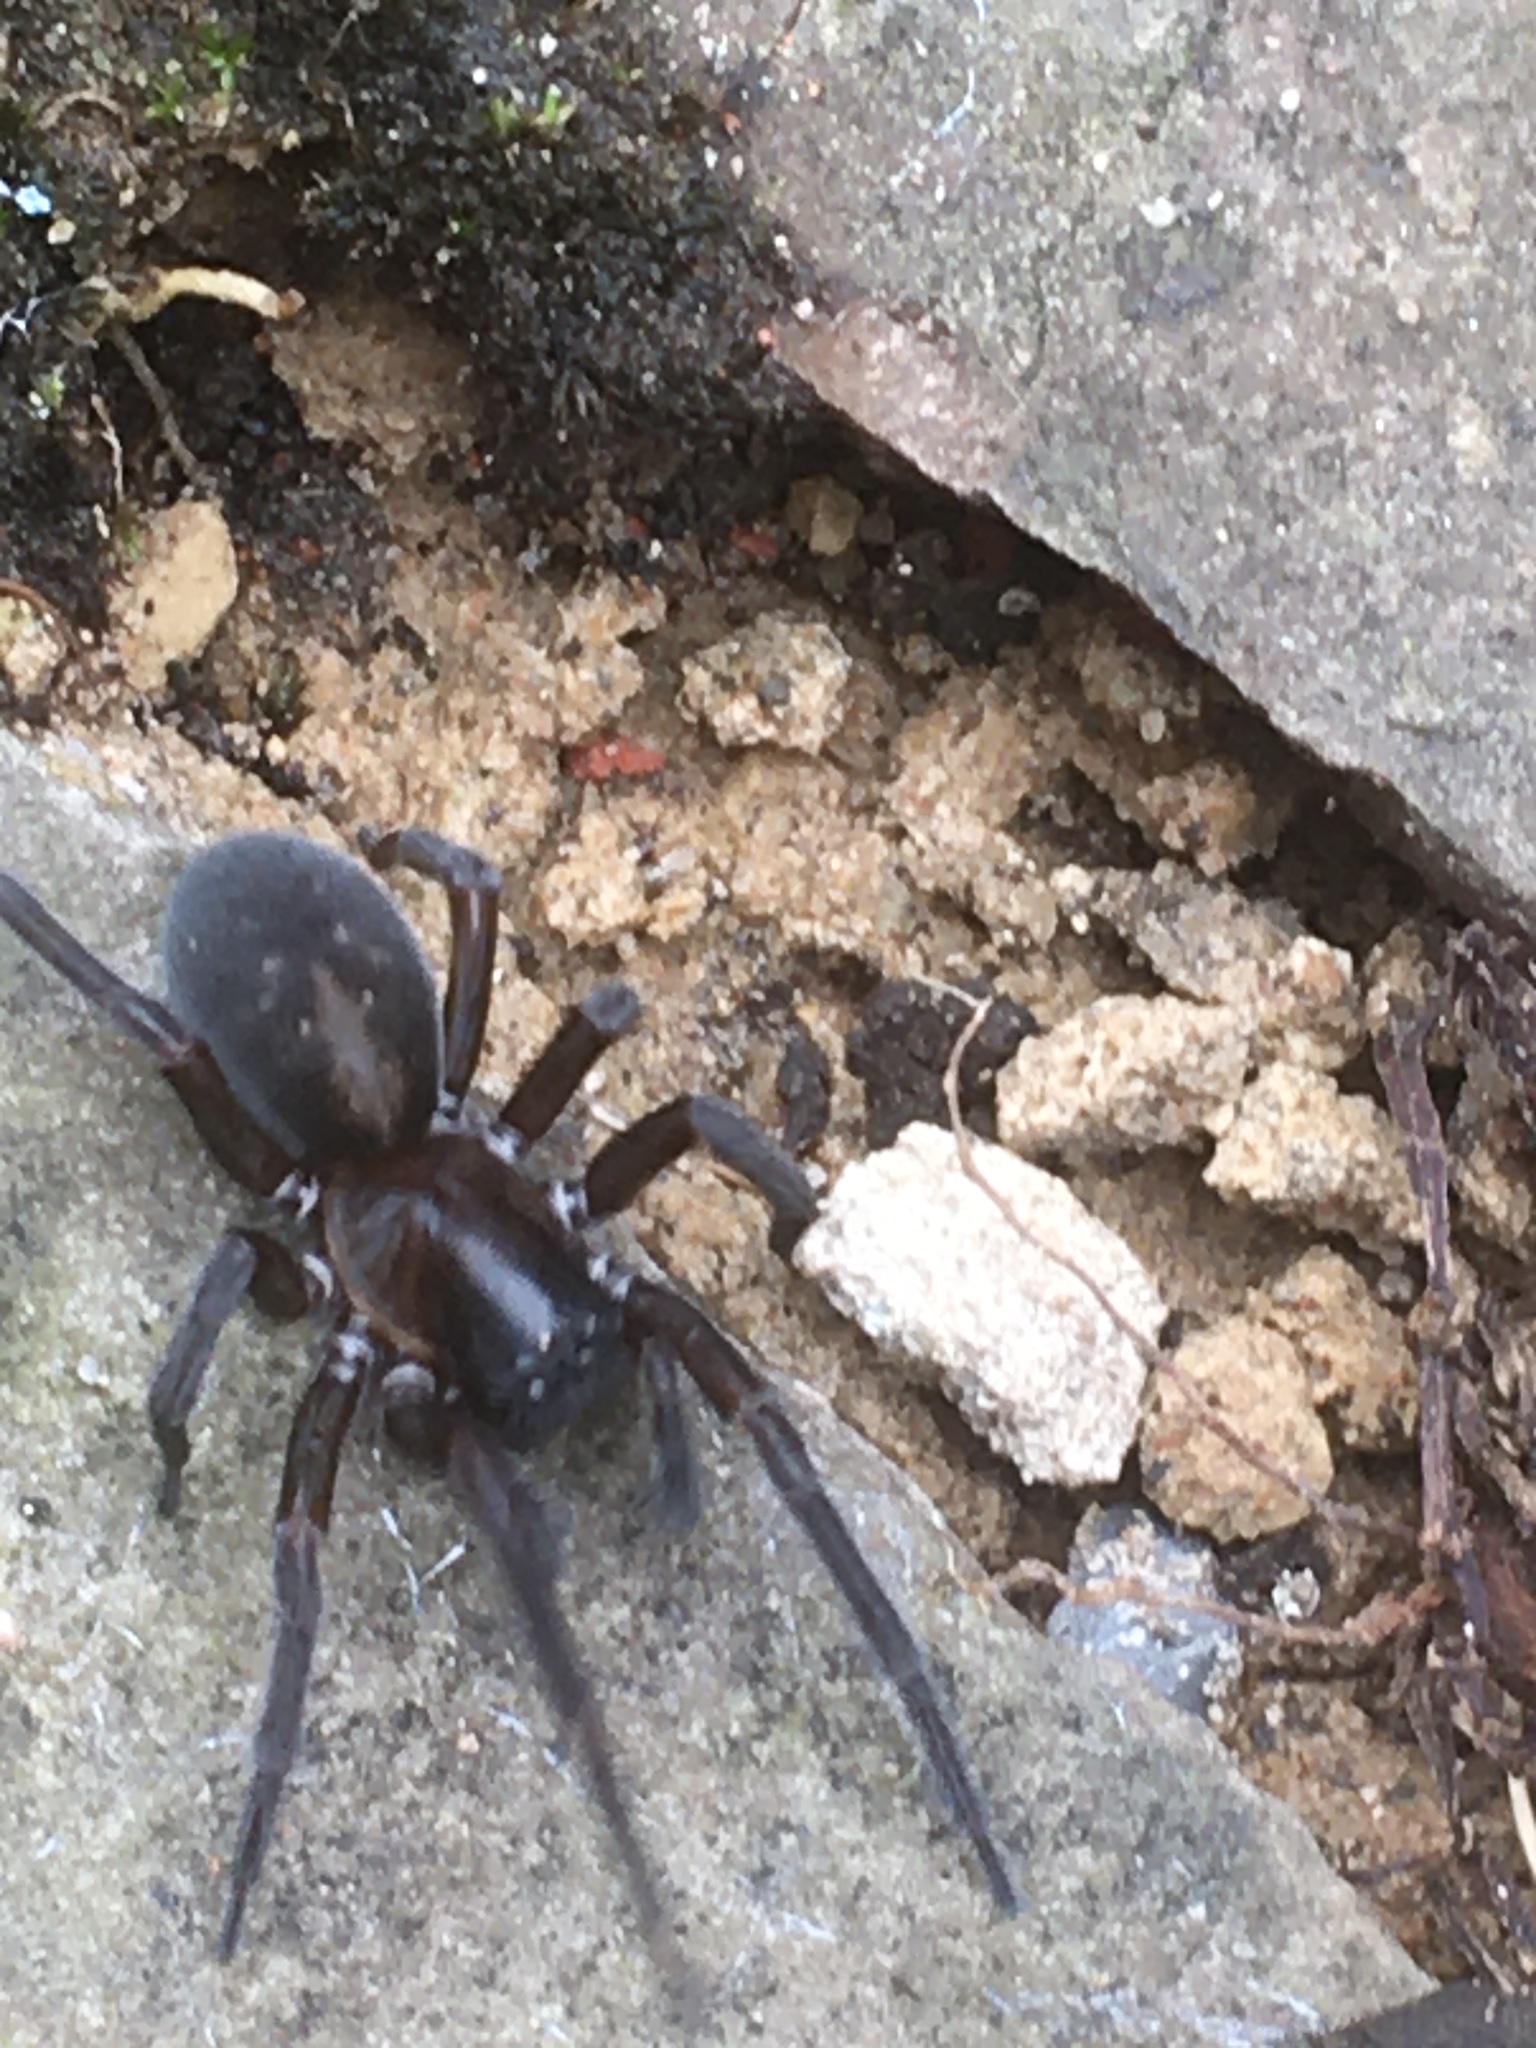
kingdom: Animalia
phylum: Arthropoda
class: Arachnida
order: Araneae
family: Amaurobiidae
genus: Amaurobius
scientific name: Amaurobius ferox
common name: Black laceweaver
